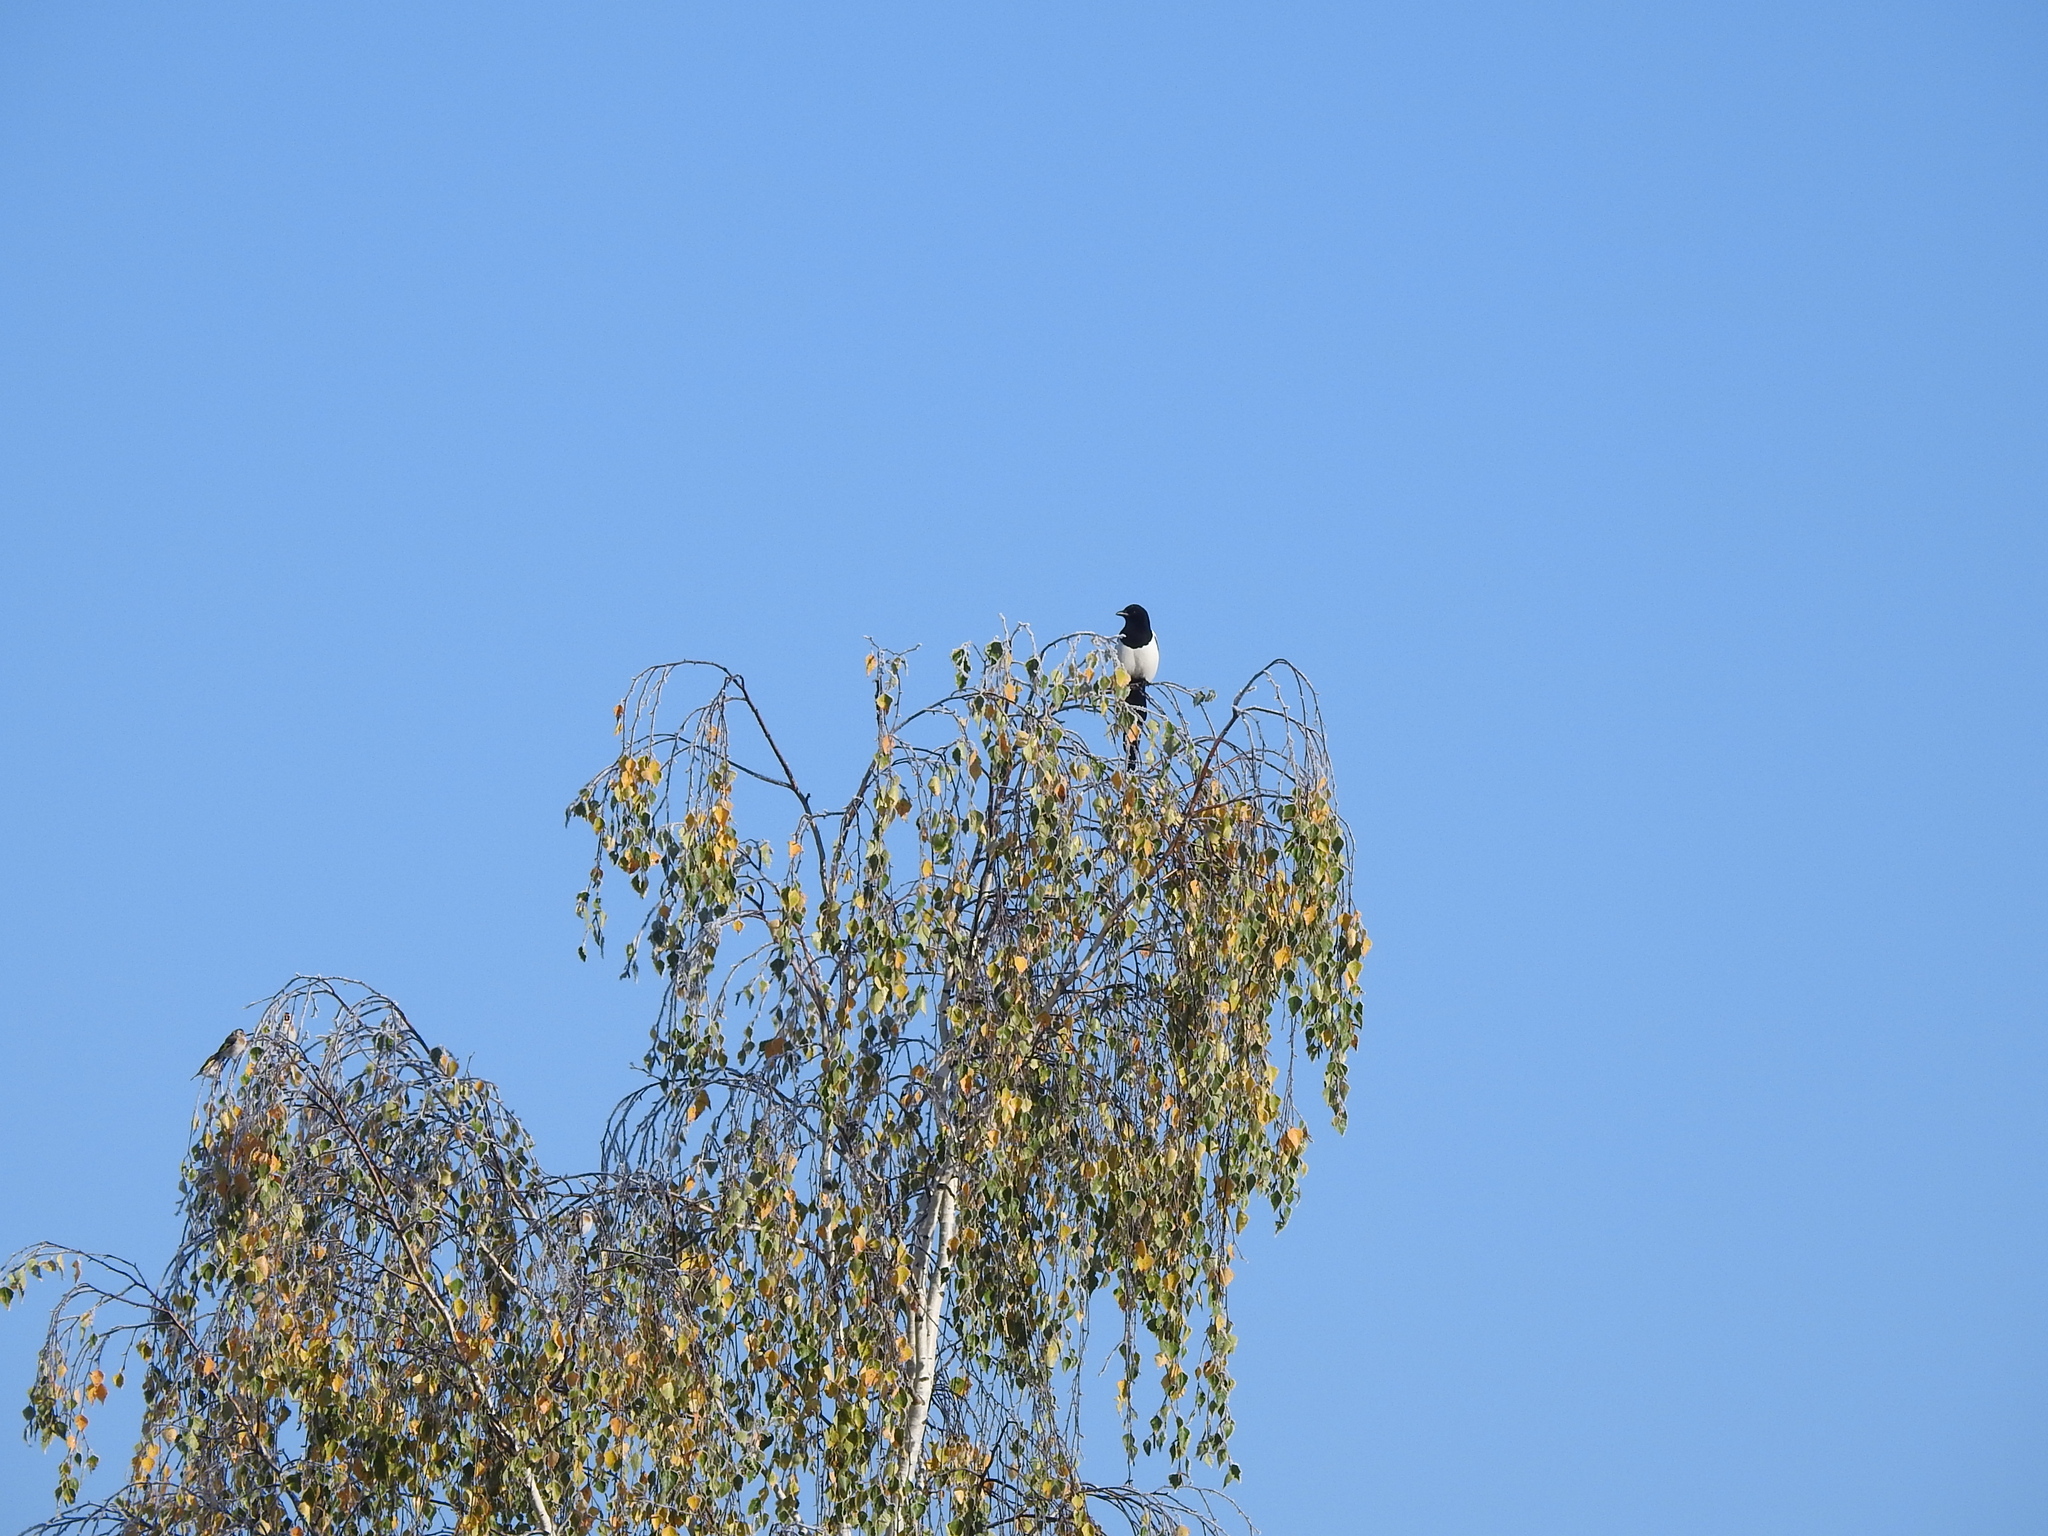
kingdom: Animalia
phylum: Chordata
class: Aves
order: Passeriformes
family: Corvidae
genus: Pica
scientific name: Pica pica
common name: Eurasian magpie
